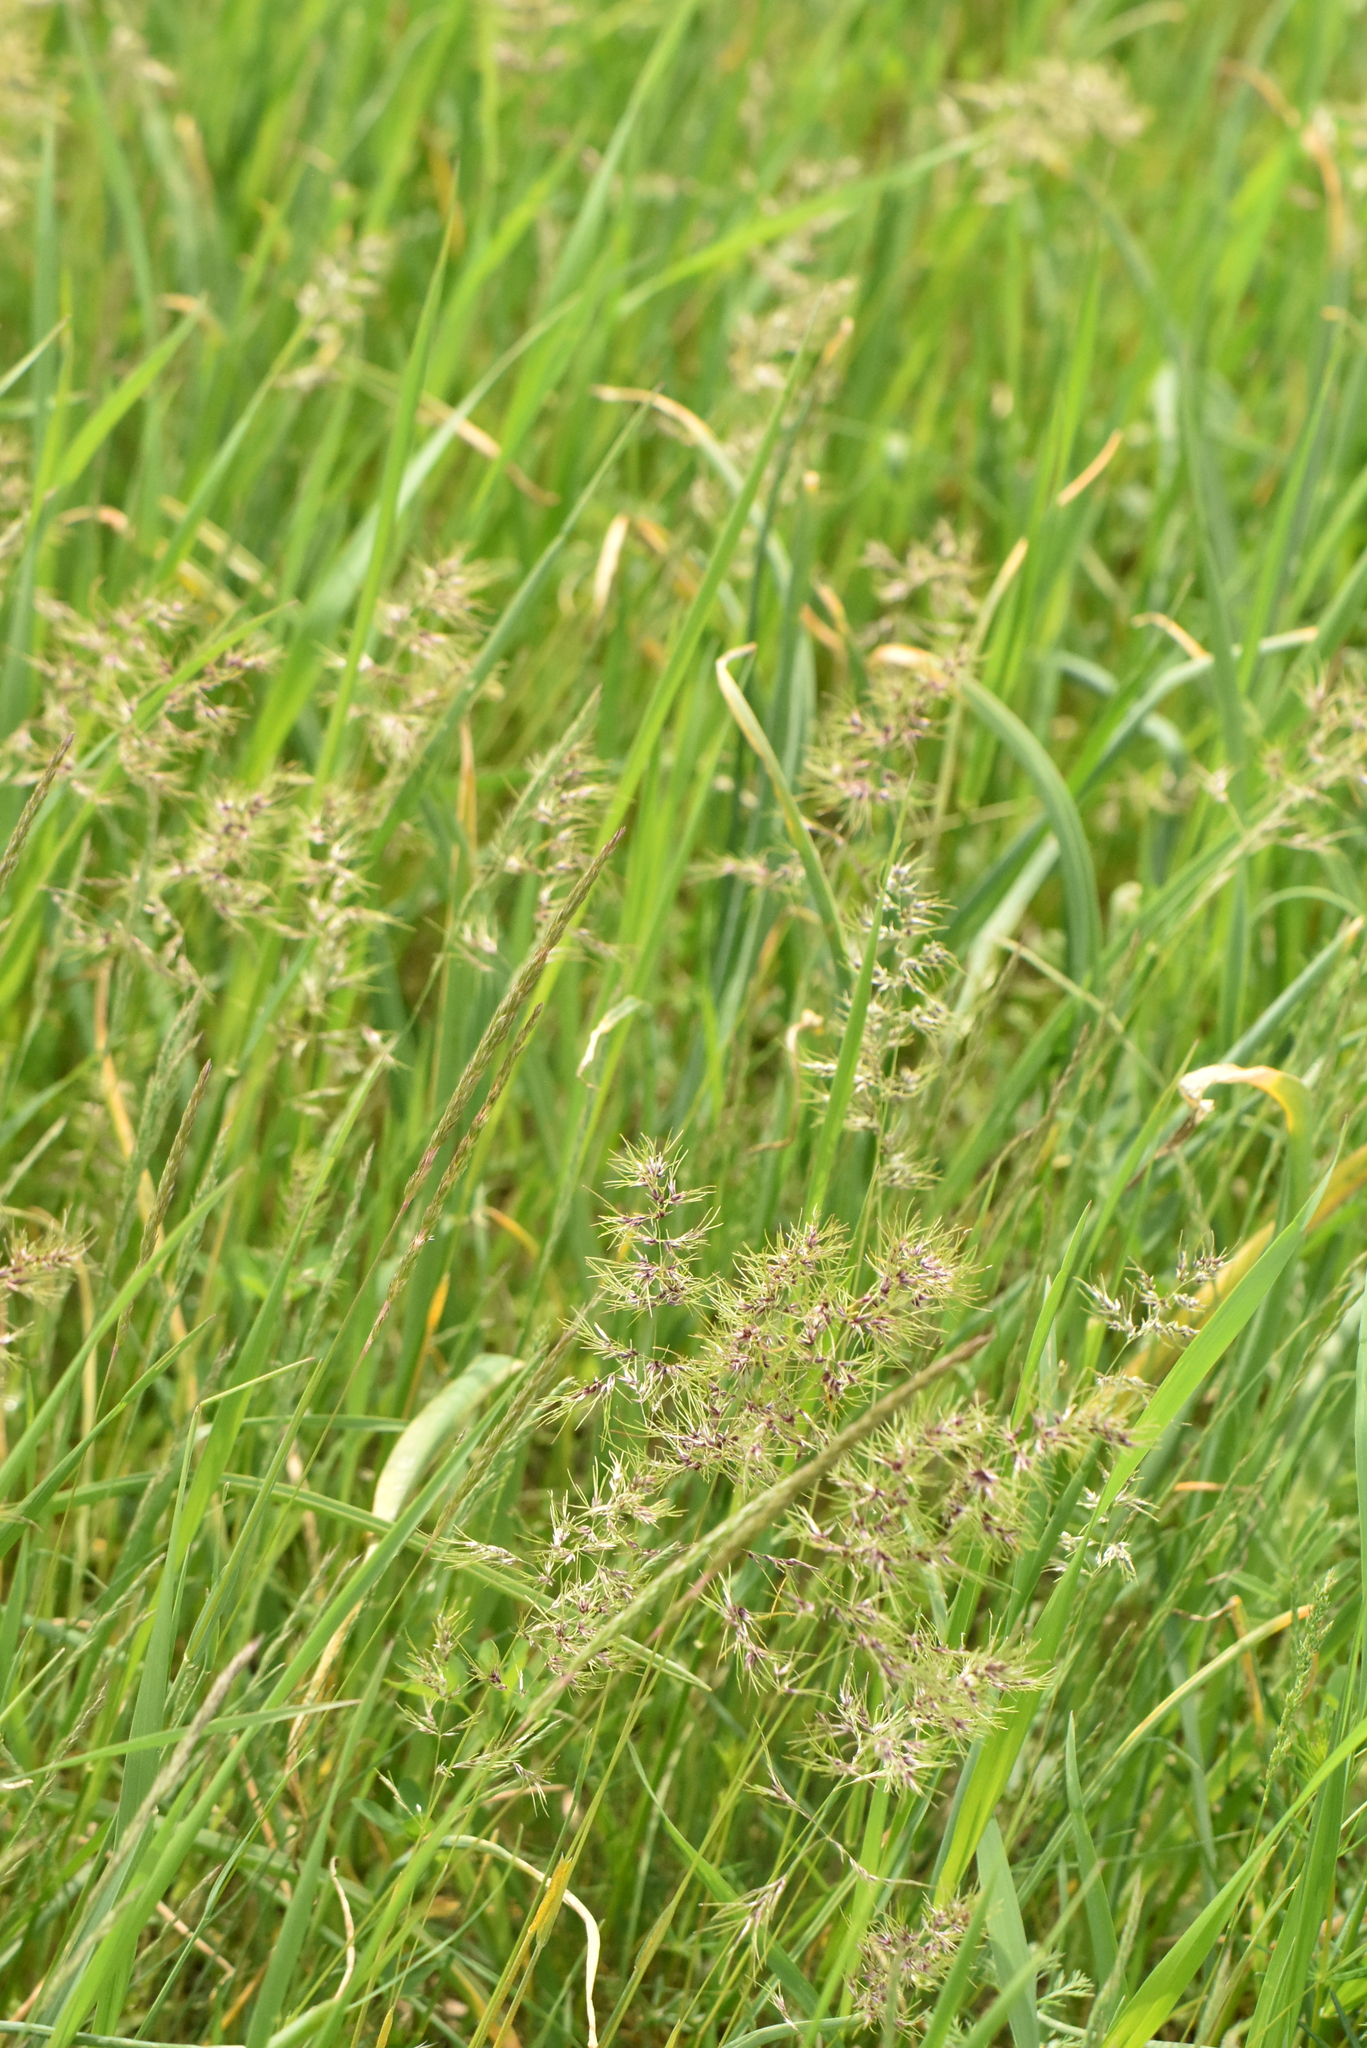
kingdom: Plantae
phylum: Tracheophyta
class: Liliopsida
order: Poales
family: Poaceae
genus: Poa
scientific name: Poa bulbosa
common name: Bulbous bluegrass
